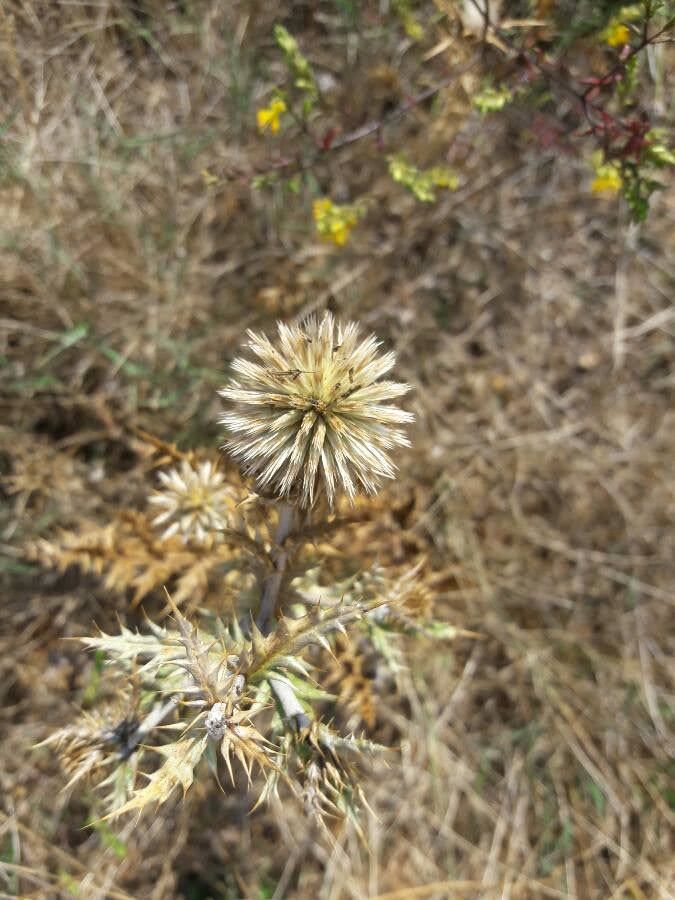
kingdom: Plantae
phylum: Tracheophyta
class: Magnoliopsida
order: Asterales
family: Asteraceae
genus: Echinops
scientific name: Echinops ritro
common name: Globe thistle
